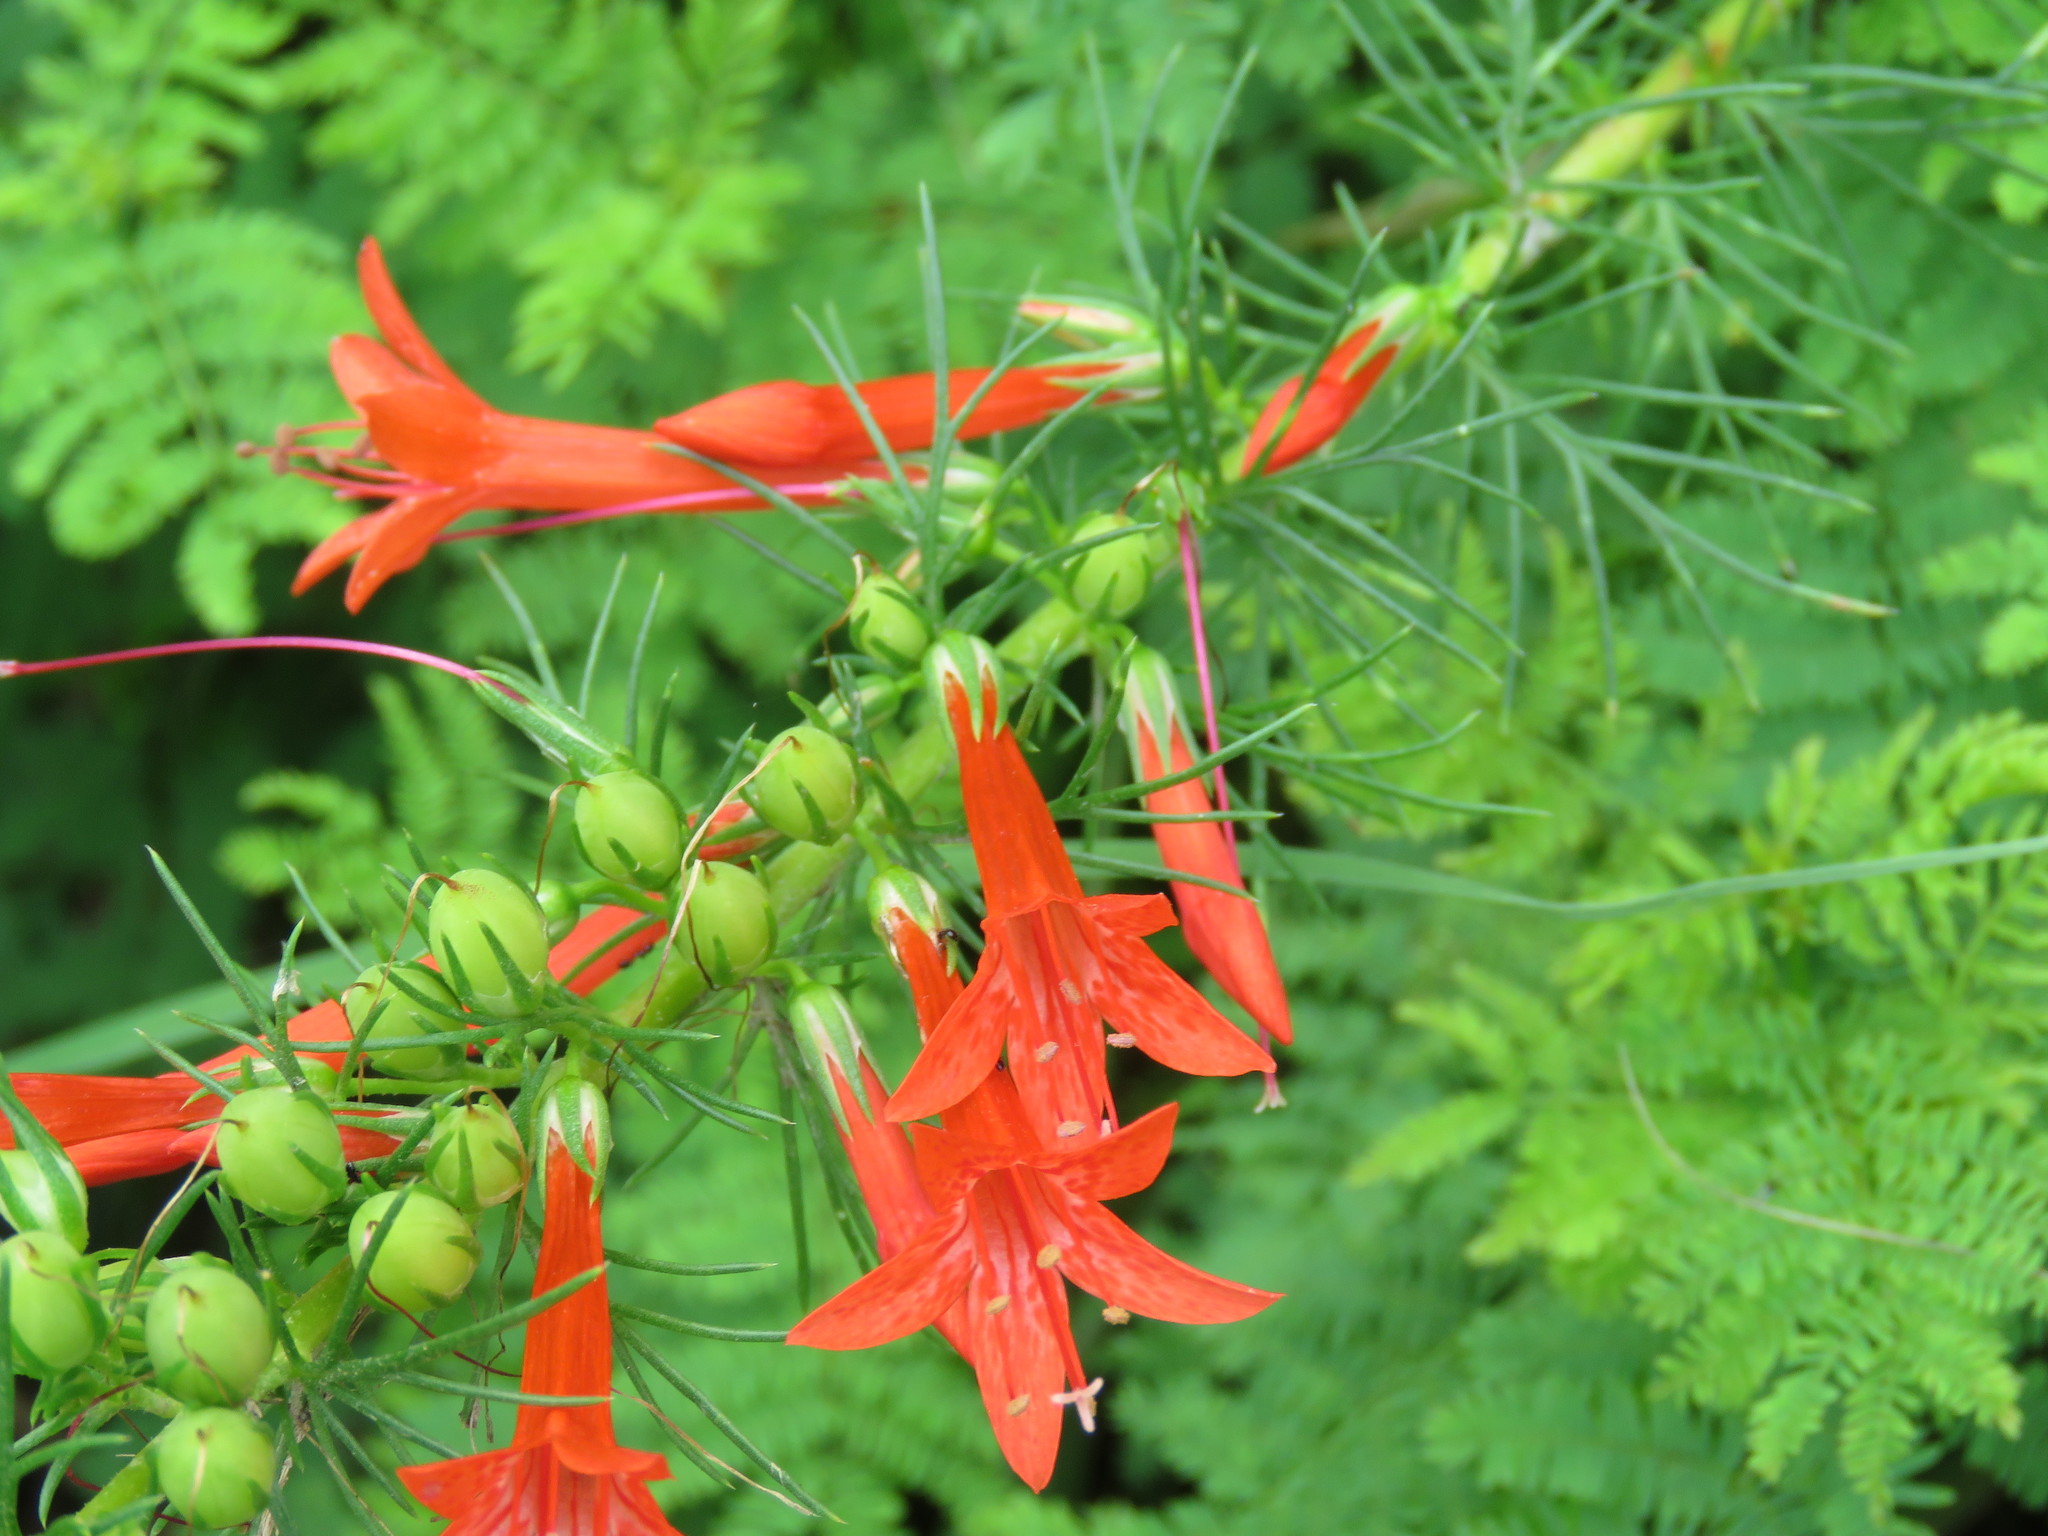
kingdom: Plantae
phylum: Tracheophyta
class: Magnoliopsida
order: Ericales
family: Polemoniaceae
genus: Ipomopsis
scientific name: Ipomopsis rubra
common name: Skyrocket
